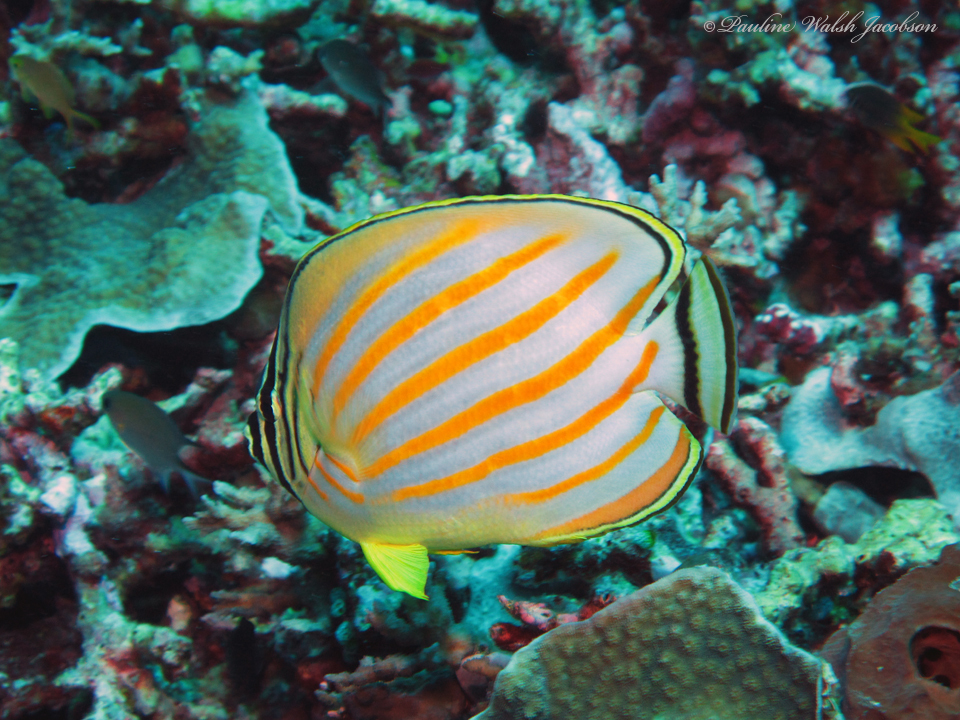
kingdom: Animalia
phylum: Chordata
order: Perciformes
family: Chaetodontidae
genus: Chaetodon
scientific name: Chaetodon ornatissimus
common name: Ornate butterflyfish
